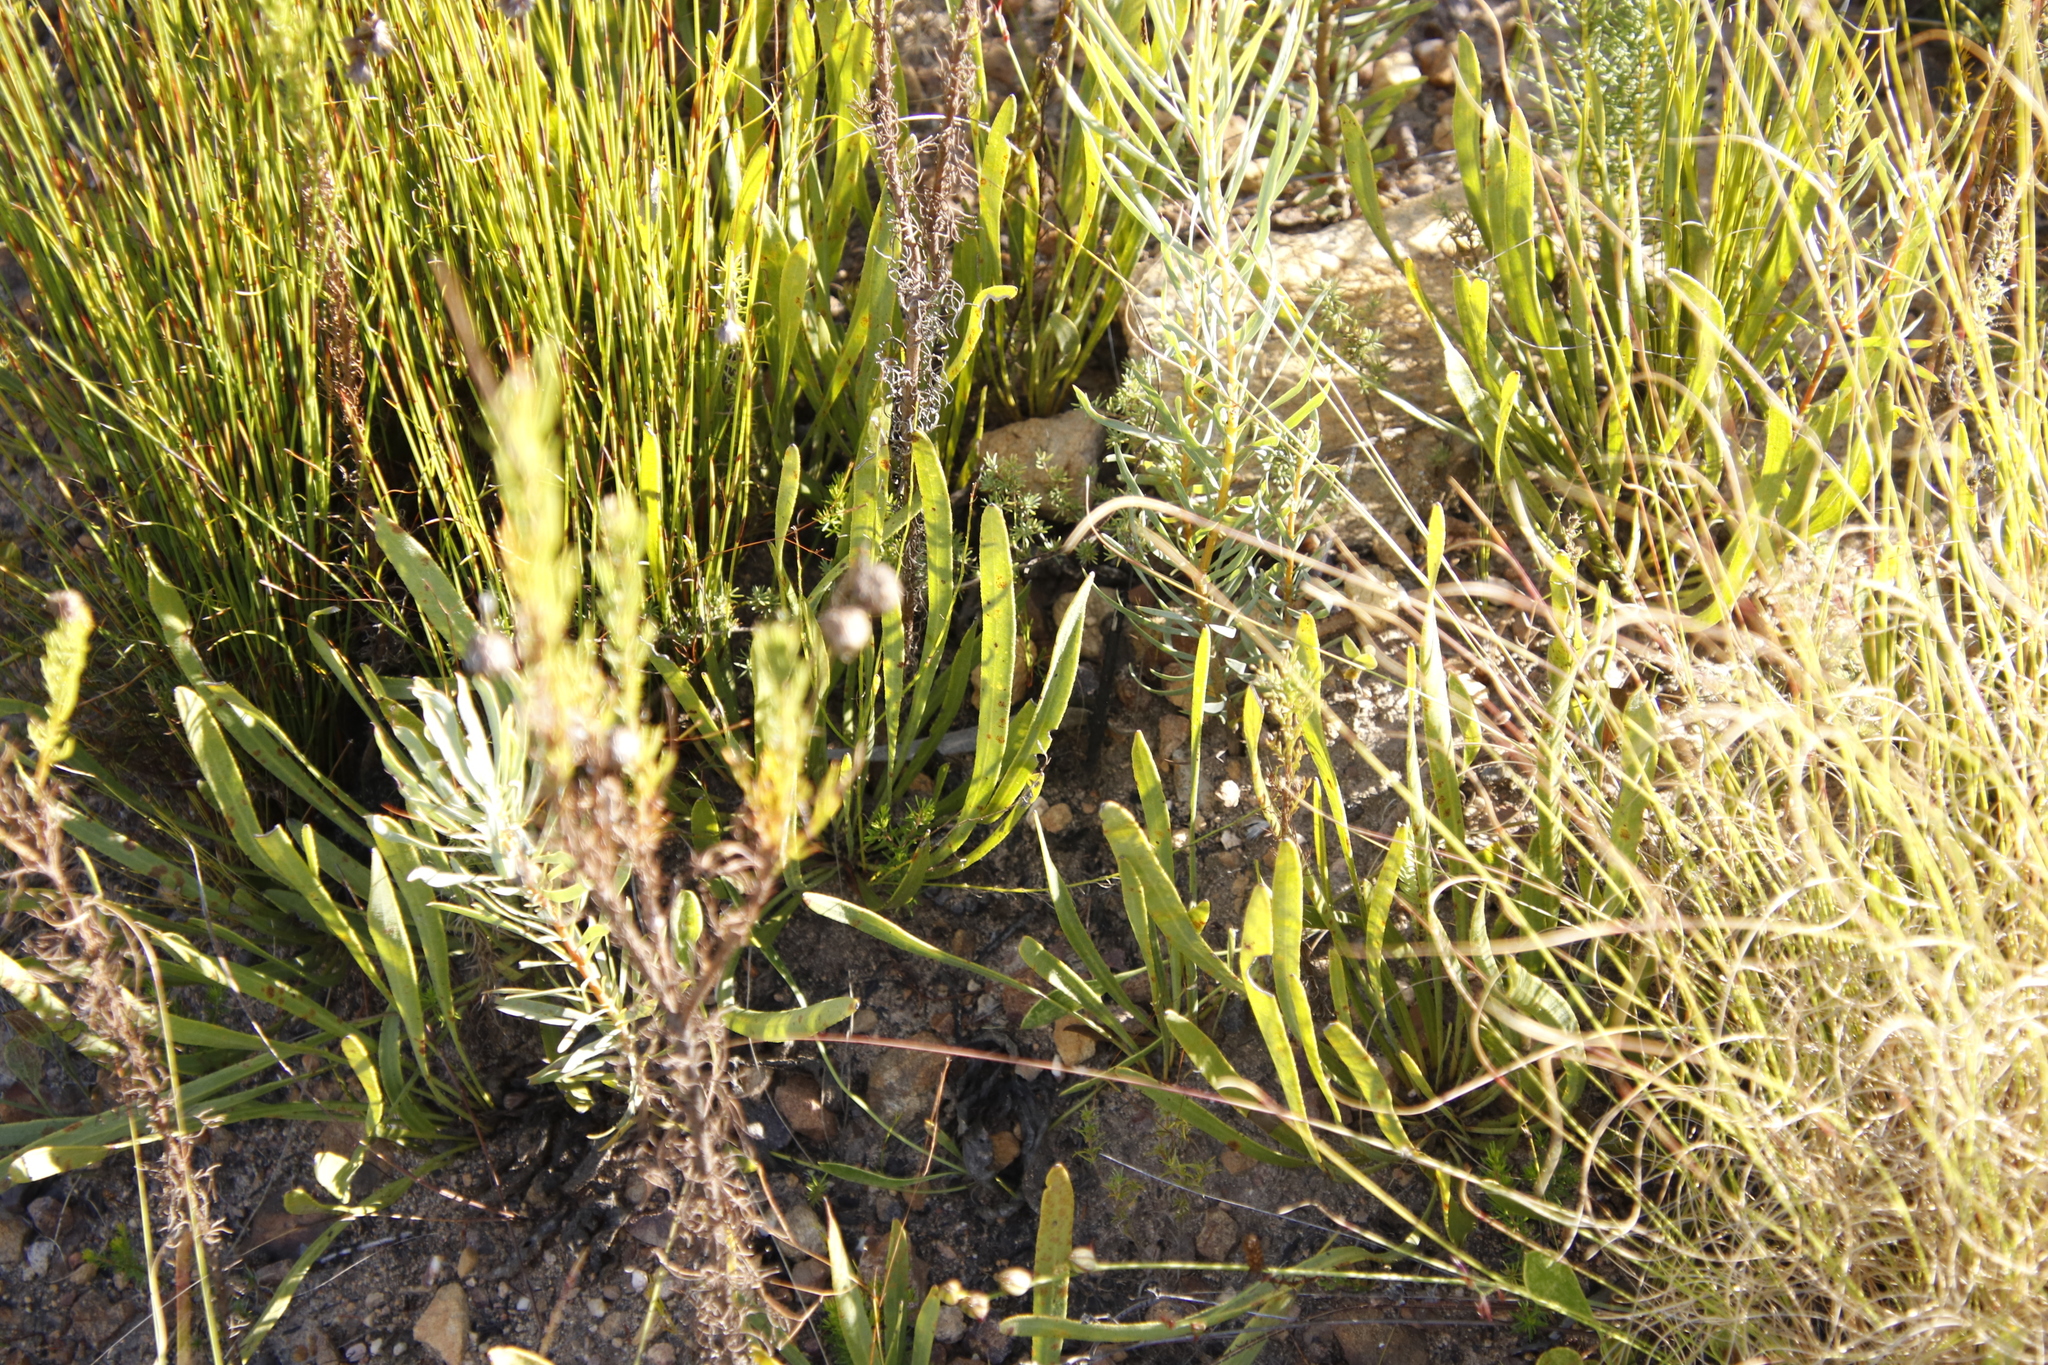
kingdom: Plantae
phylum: Tracheophyta
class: Magnoliopsida
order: Proteales
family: Proteaceae
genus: Protea
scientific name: Protea scabra
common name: Sandpaper-leaf sugarbush
